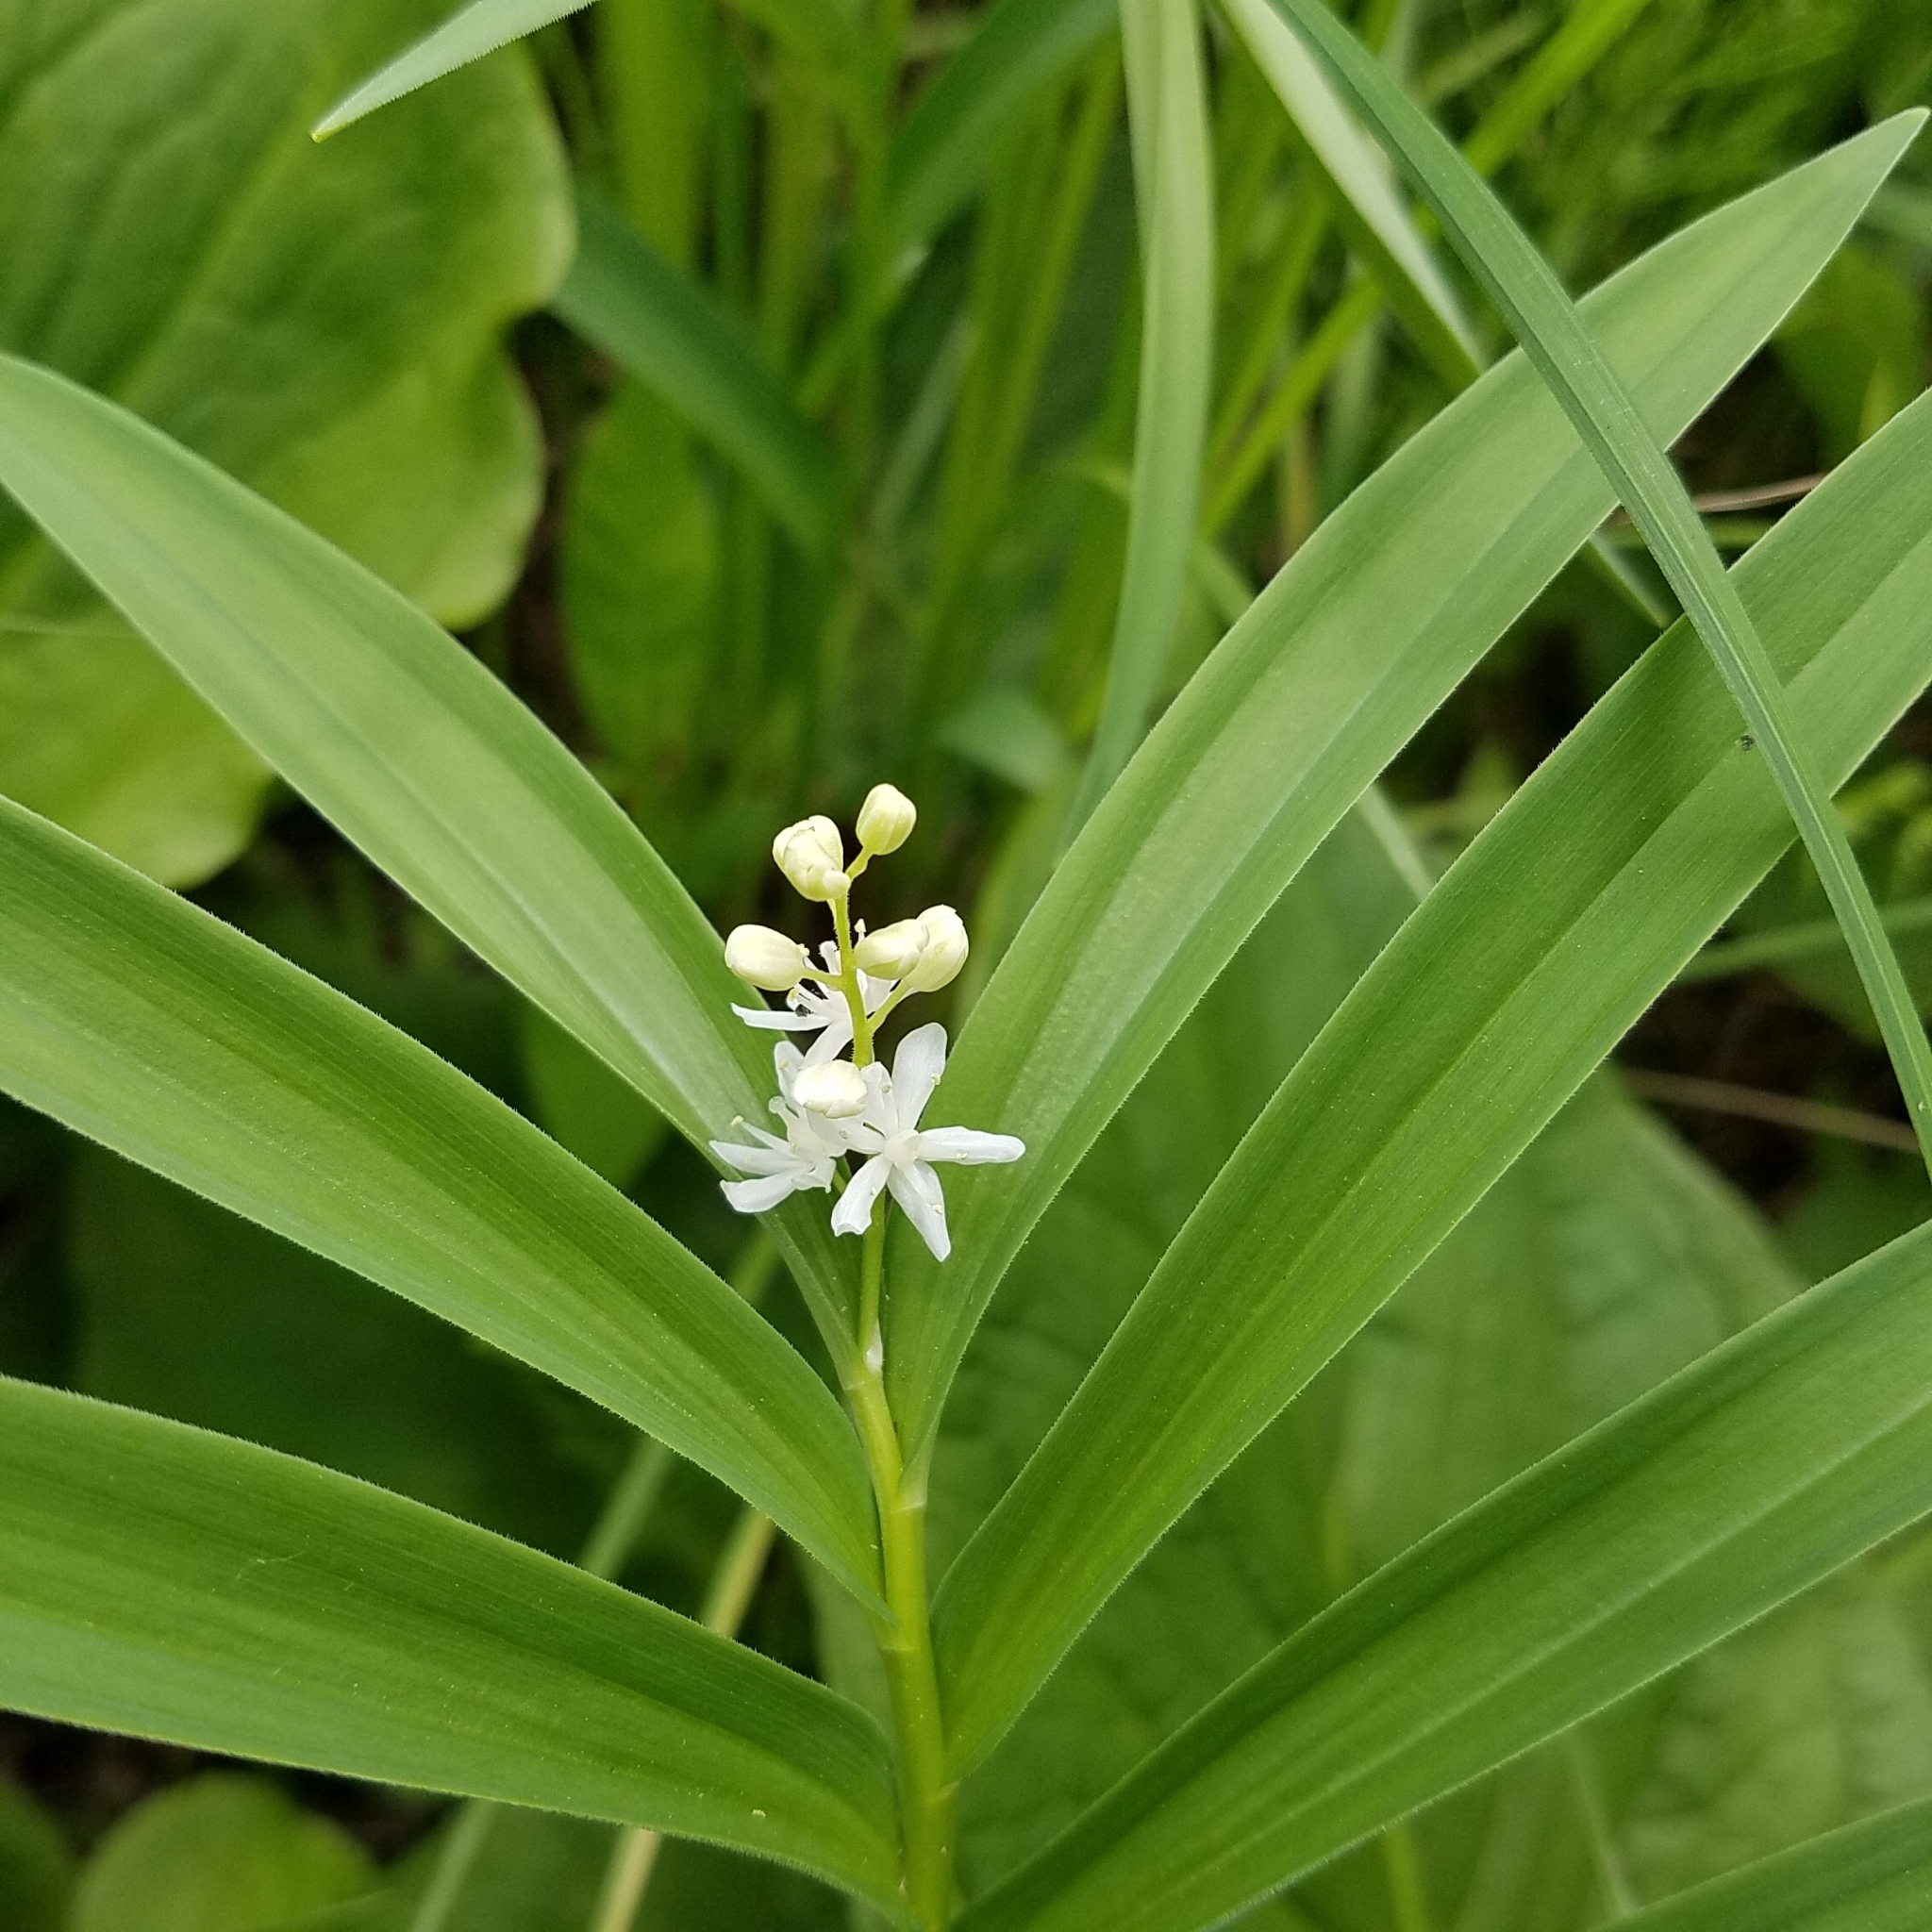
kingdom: Plantae
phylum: Tracheophyta
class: Liliopsida
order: Asparagales
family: Asparagaceae
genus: Maianthemum
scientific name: Maianthemum stellatum
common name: Little false solomon's seal
